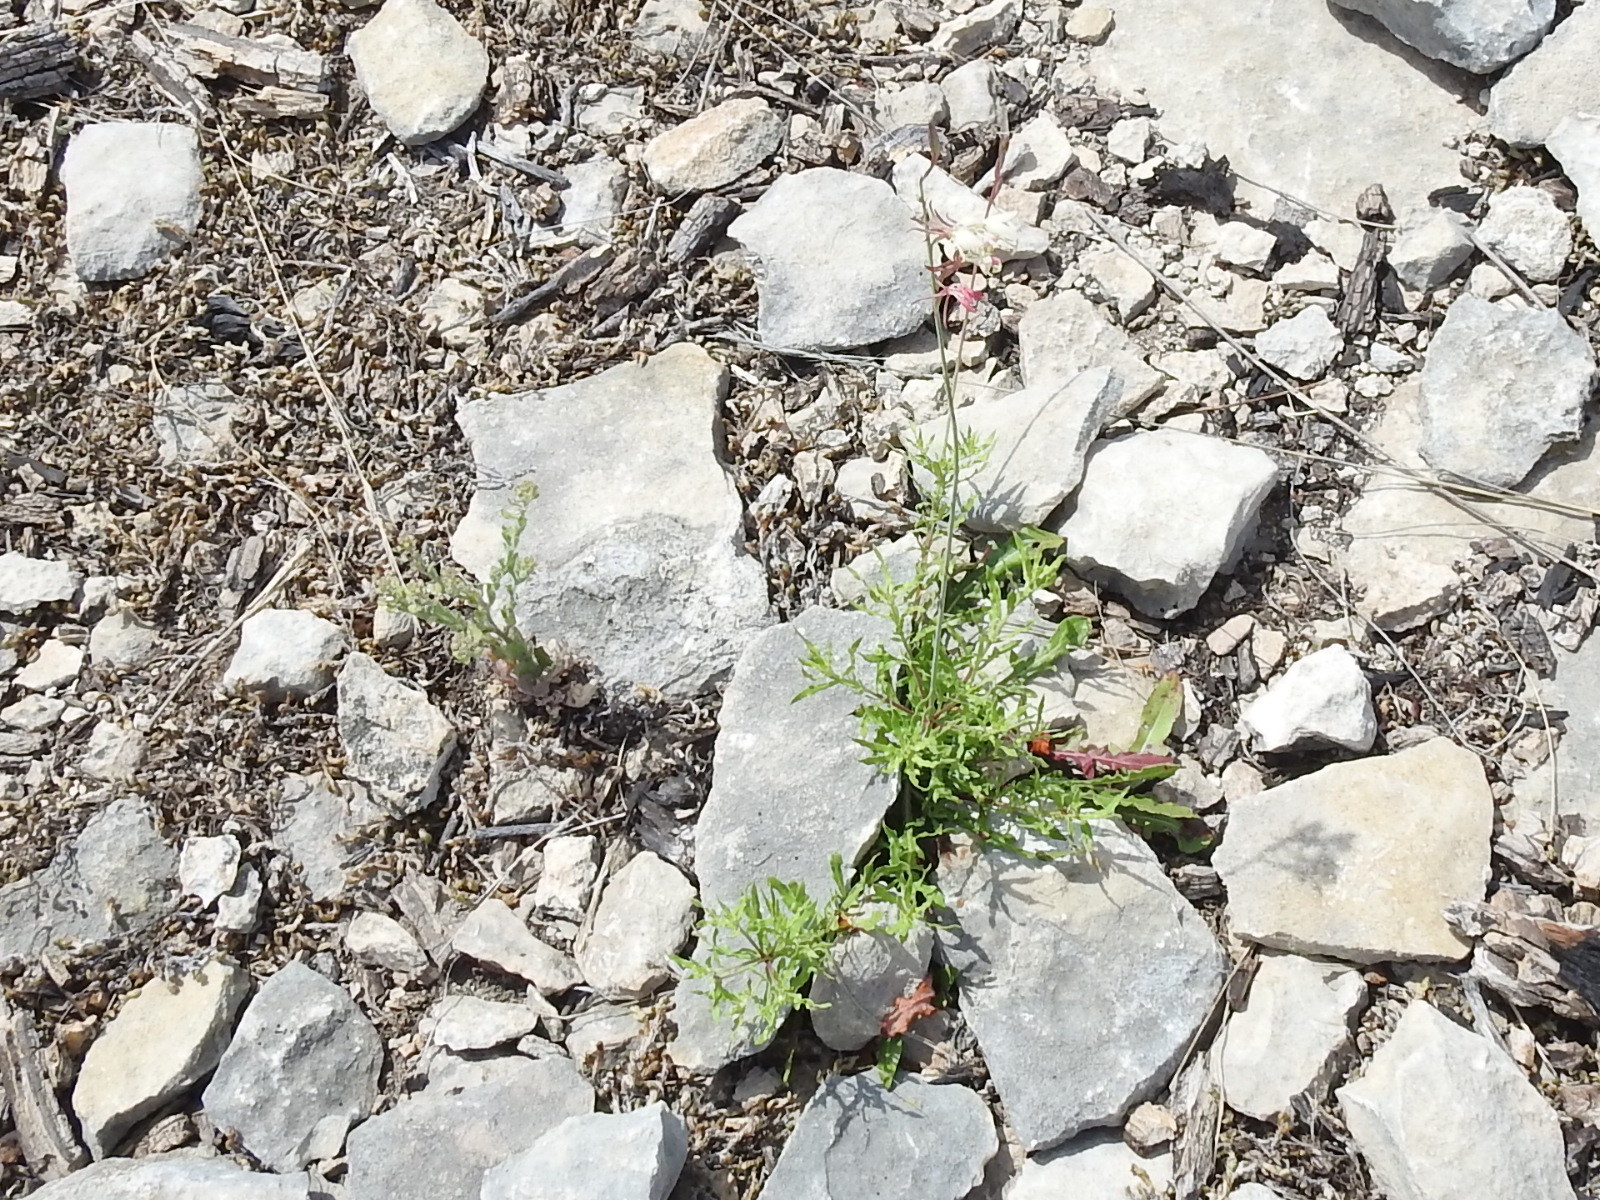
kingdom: Plantae
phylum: Tracheophyta
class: Magnoliopsida
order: Myrtales
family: Onagraceae
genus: Oenothera
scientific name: Oenothera suffrutescens
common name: Scarlet beeblossom
